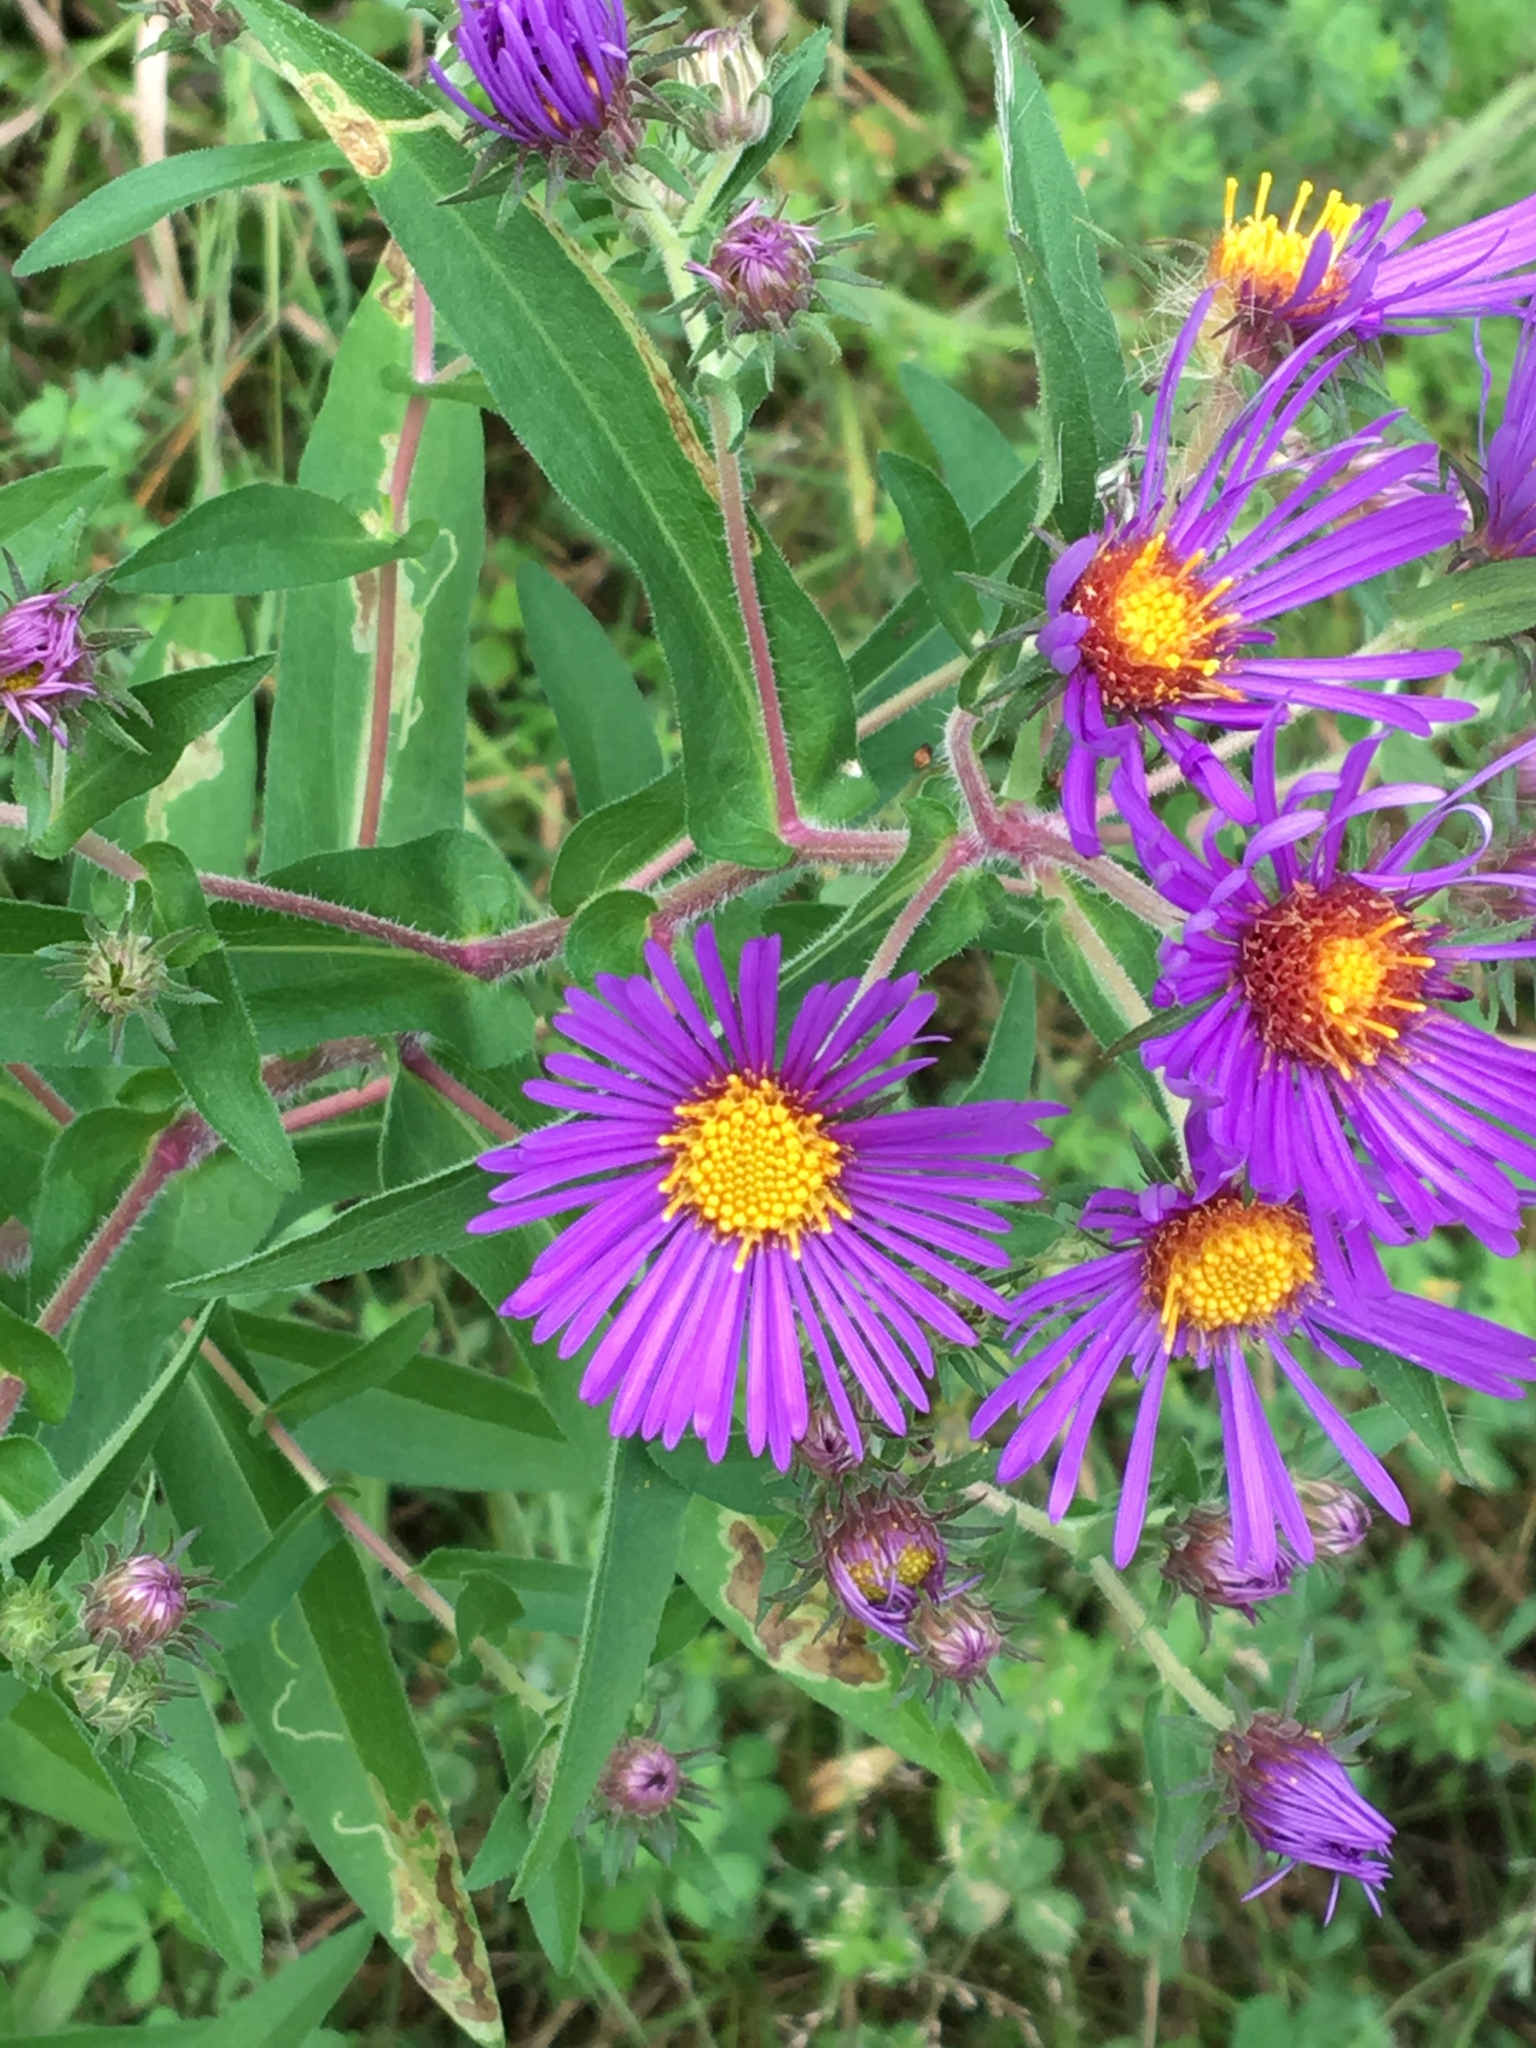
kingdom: Plantae
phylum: Tracheophyta
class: Magnoliopsida
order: Asterales
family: Asteraceae
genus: Symphyotrichum
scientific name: Symphyotrichum novae-angliae
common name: Michaelmas daisy
